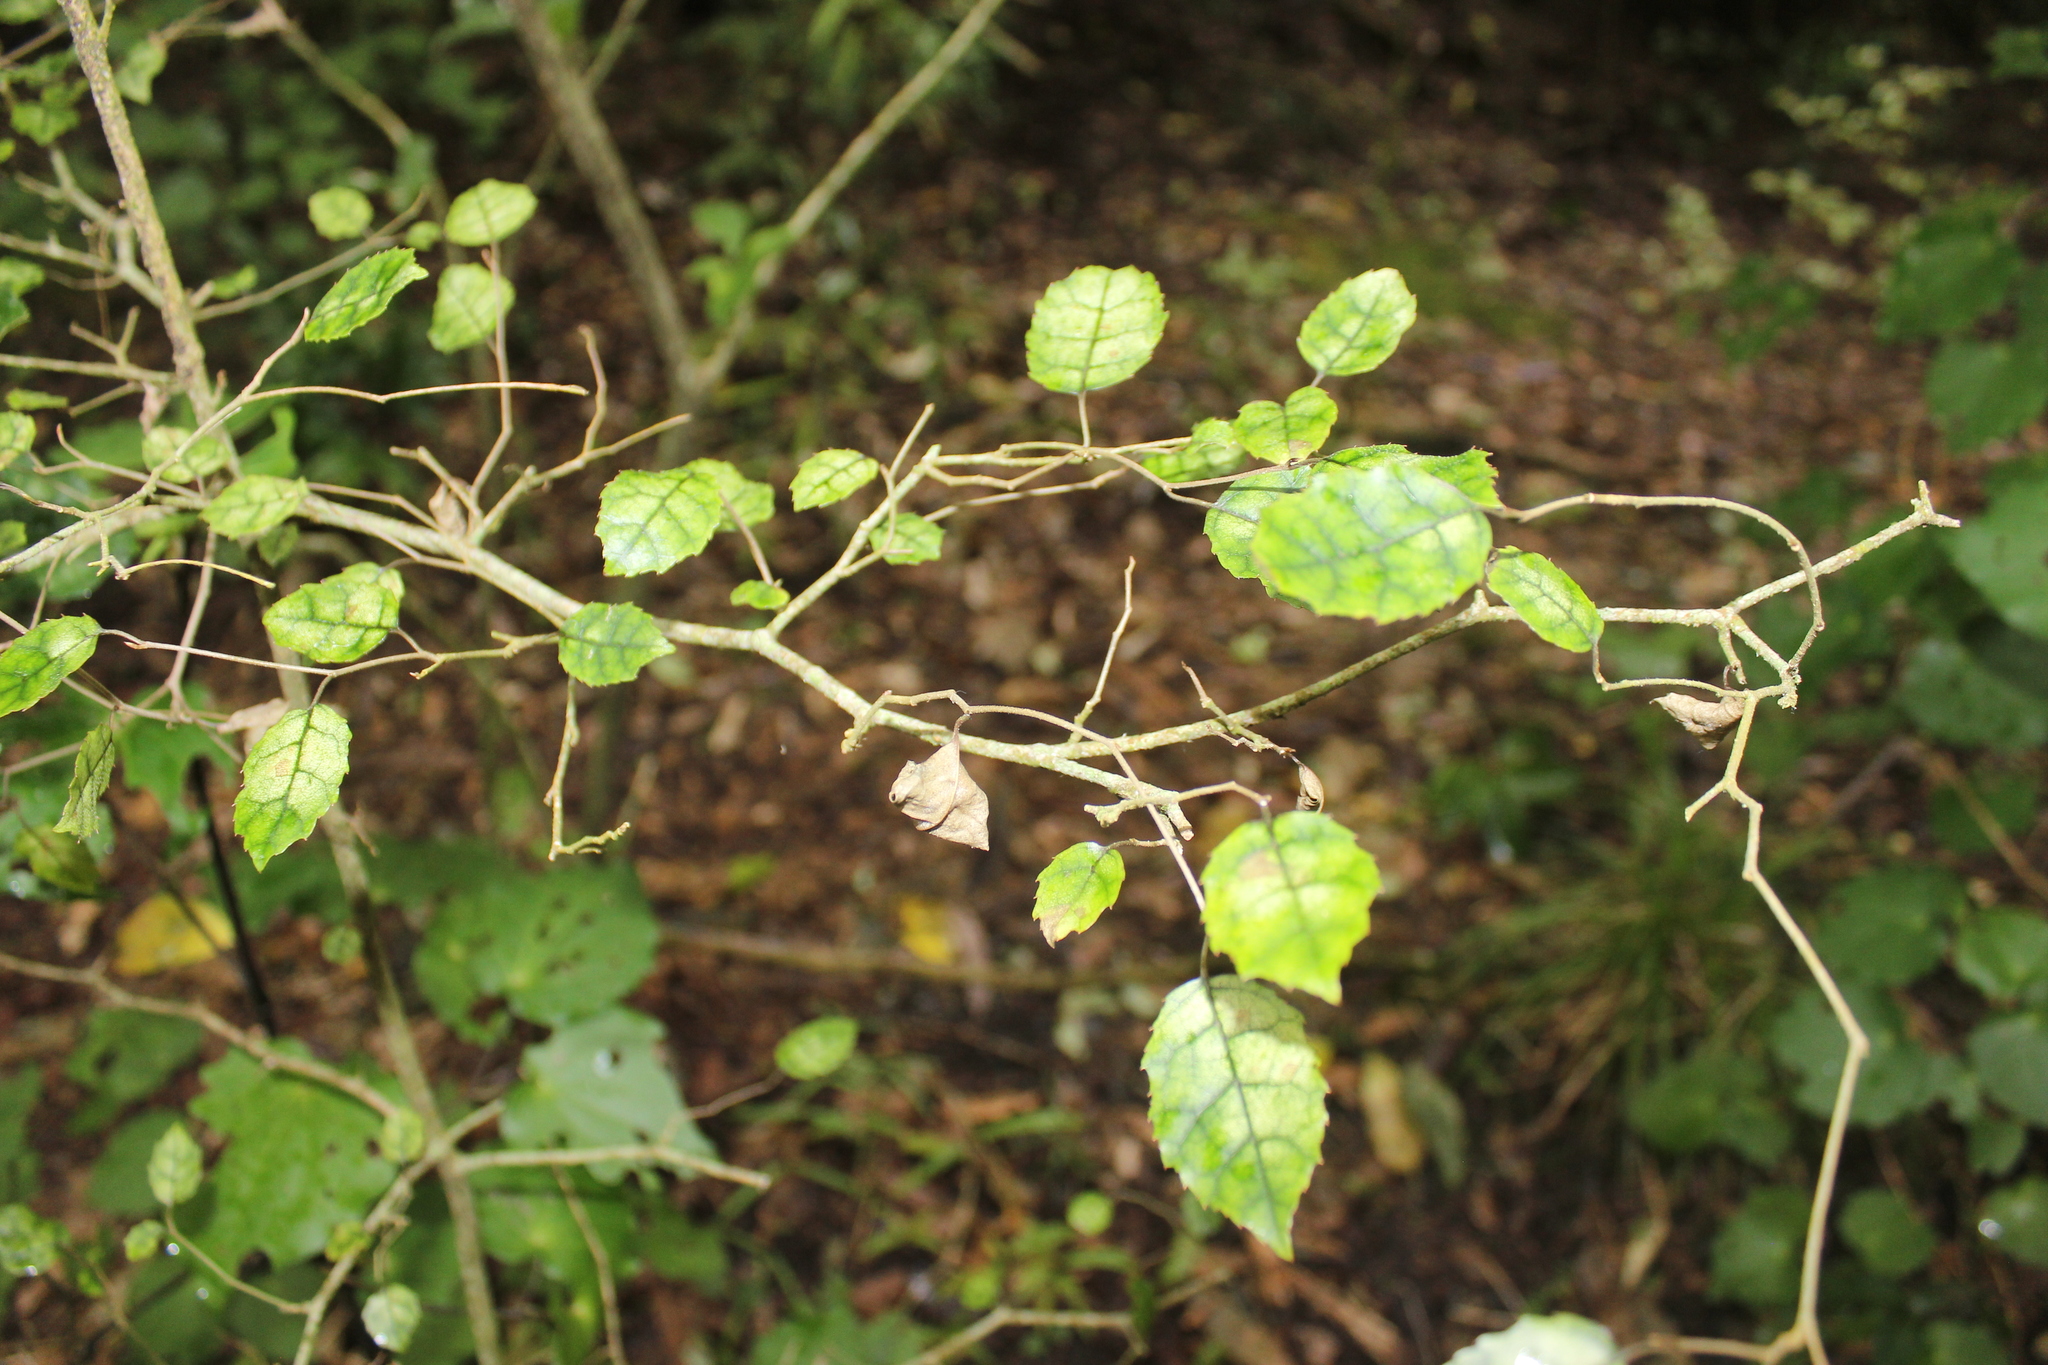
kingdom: Plantae
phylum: Tracheophyta
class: Magnoliopsida
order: Asterales
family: Rousseaceae
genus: Carpodetus
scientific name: Carpodetus serratus
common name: White mapau
